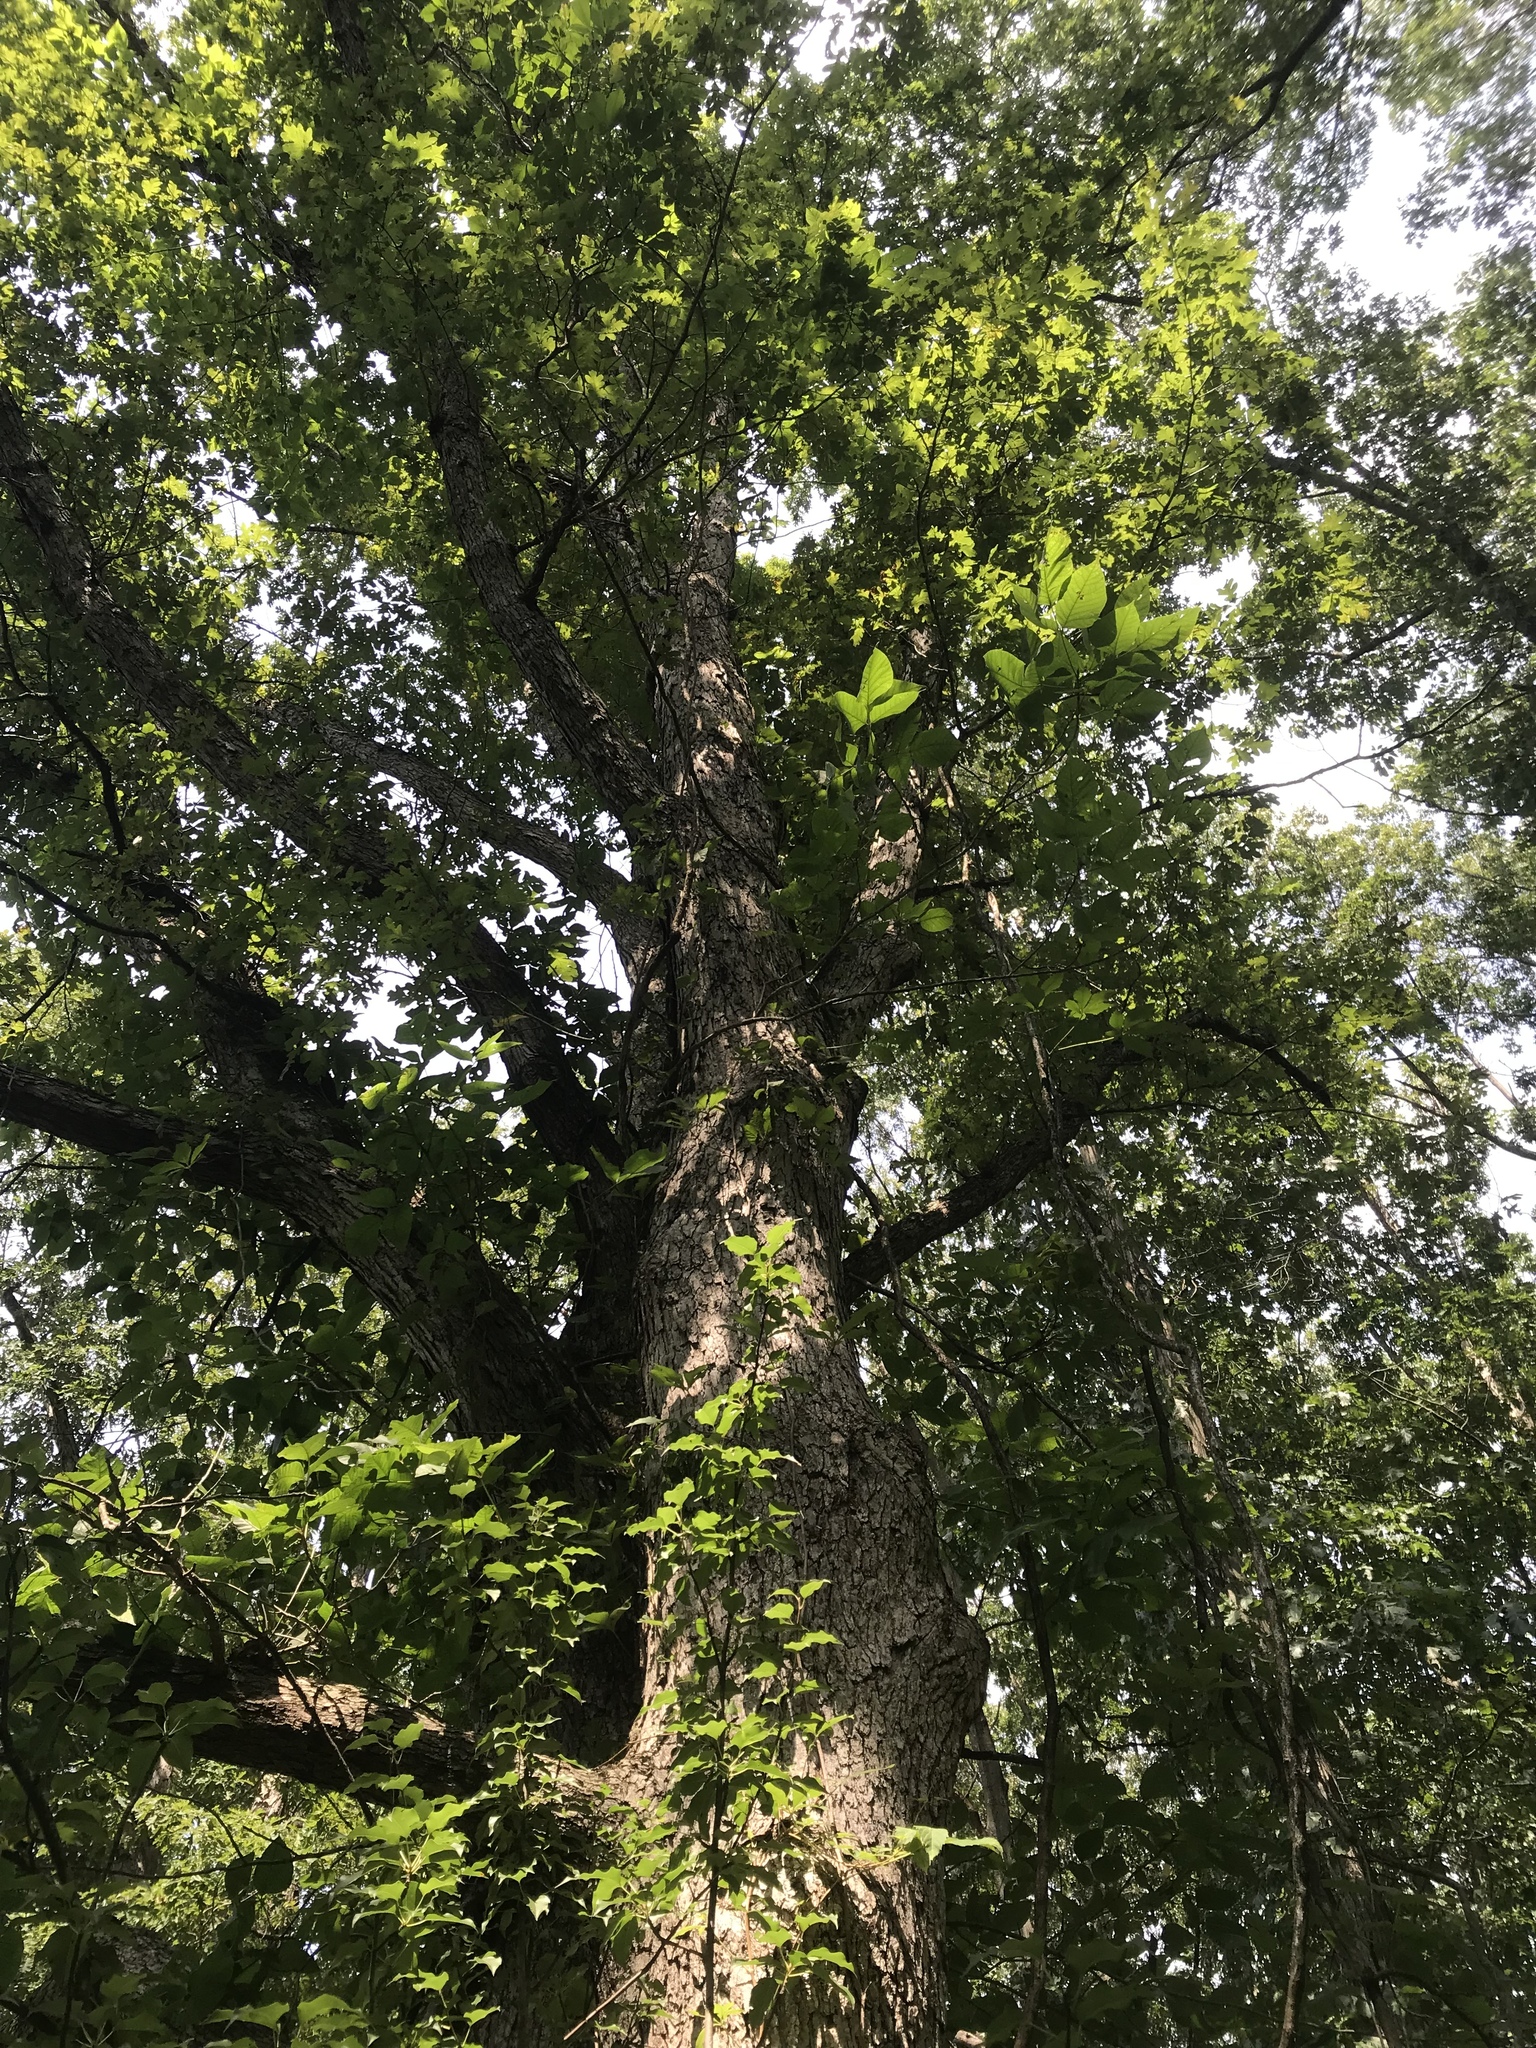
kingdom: Plantae
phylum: Tracheophyta
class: Magnoliopsida
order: Fagales
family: Fagaceae
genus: Quercus
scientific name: Quercus alba
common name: White oak
